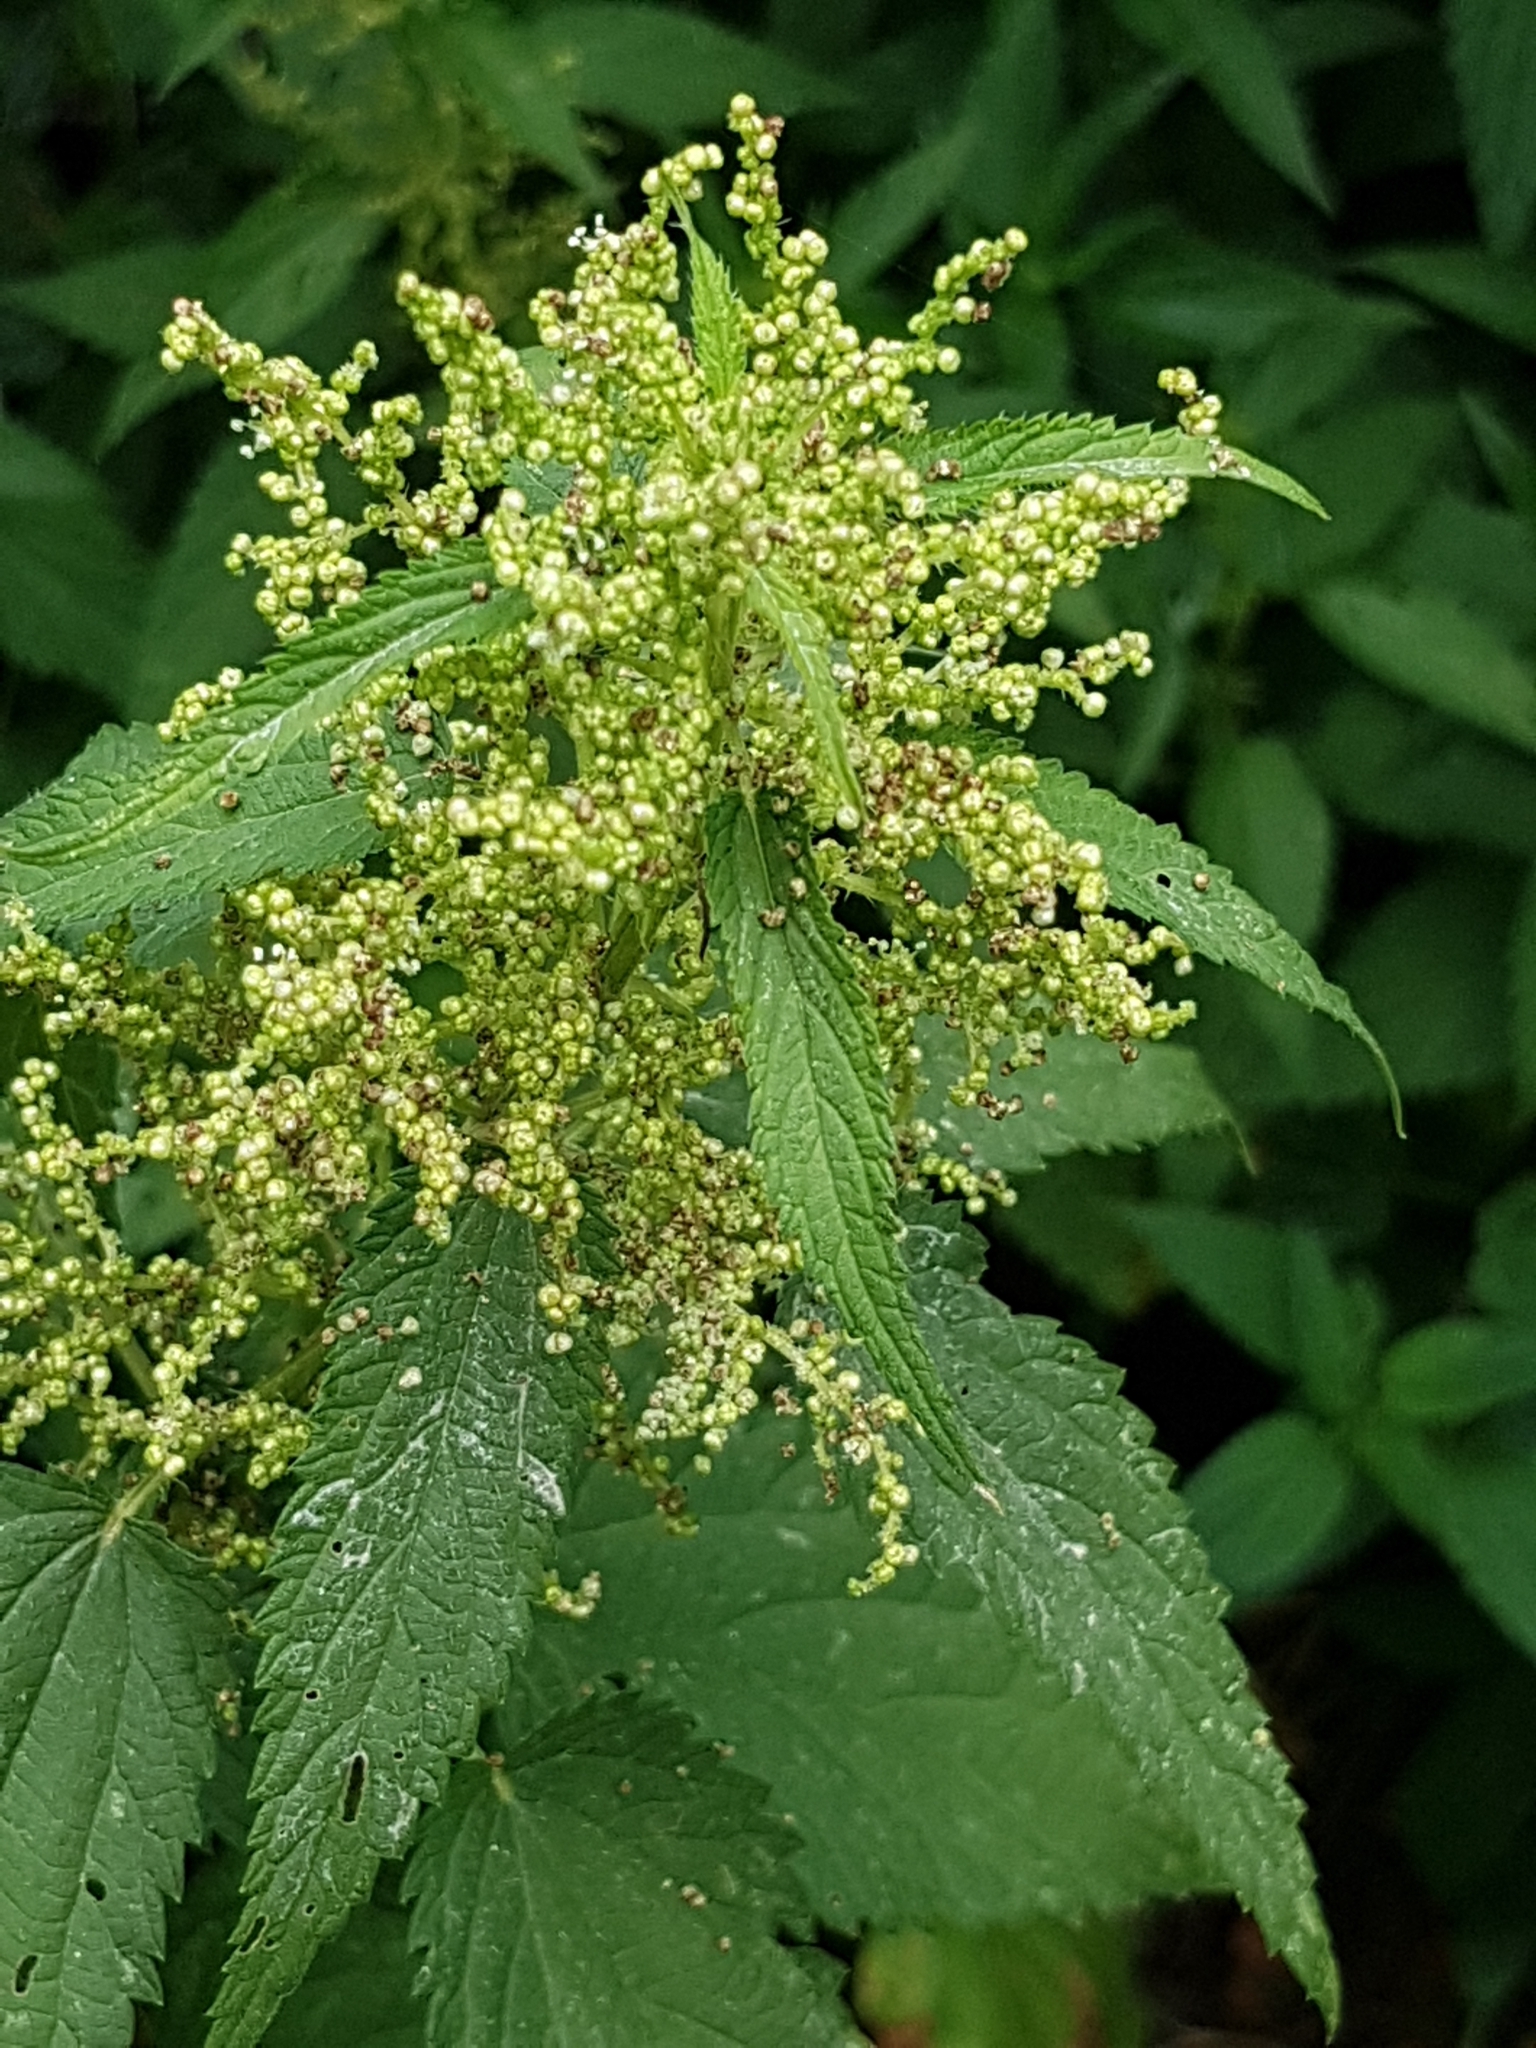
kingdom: Plantae
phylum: Tracheophyta
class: Magnoliopsida
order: Rosales
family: Urticaceae
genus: Urtica
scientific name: Urtica dioica
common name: Common nettle
